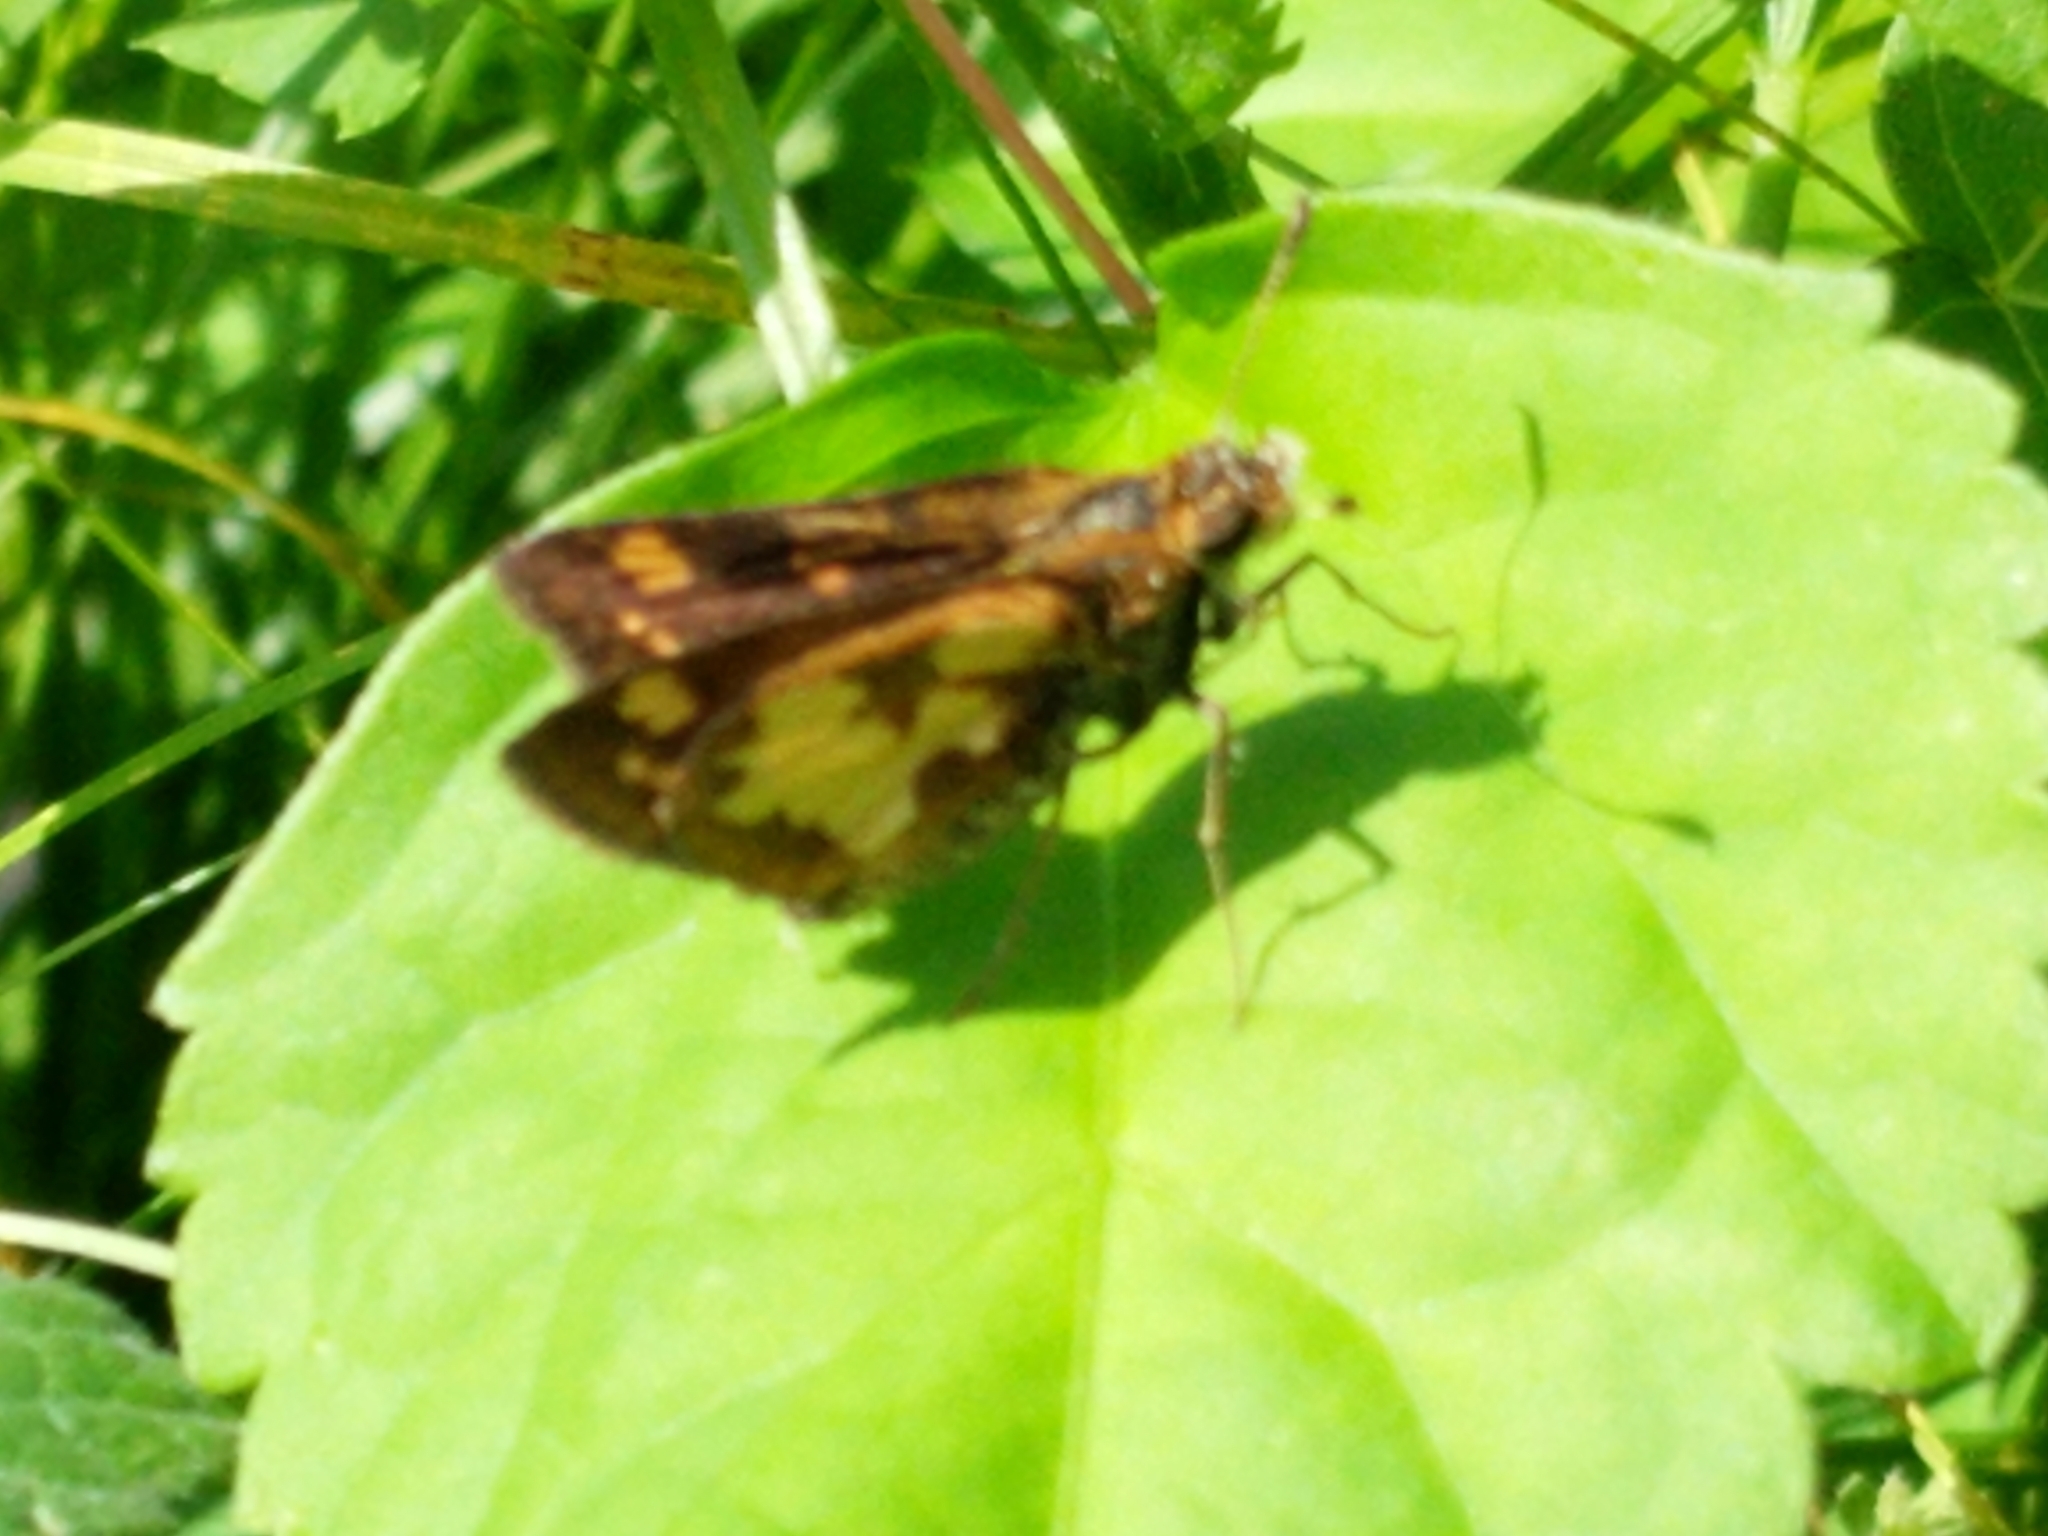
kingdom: Animalia
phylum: Arthropoda
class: Insecta
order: Lepidoptera
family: Hesperiidae
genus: Polites
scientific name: Polites coras
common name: Peck's skipper
